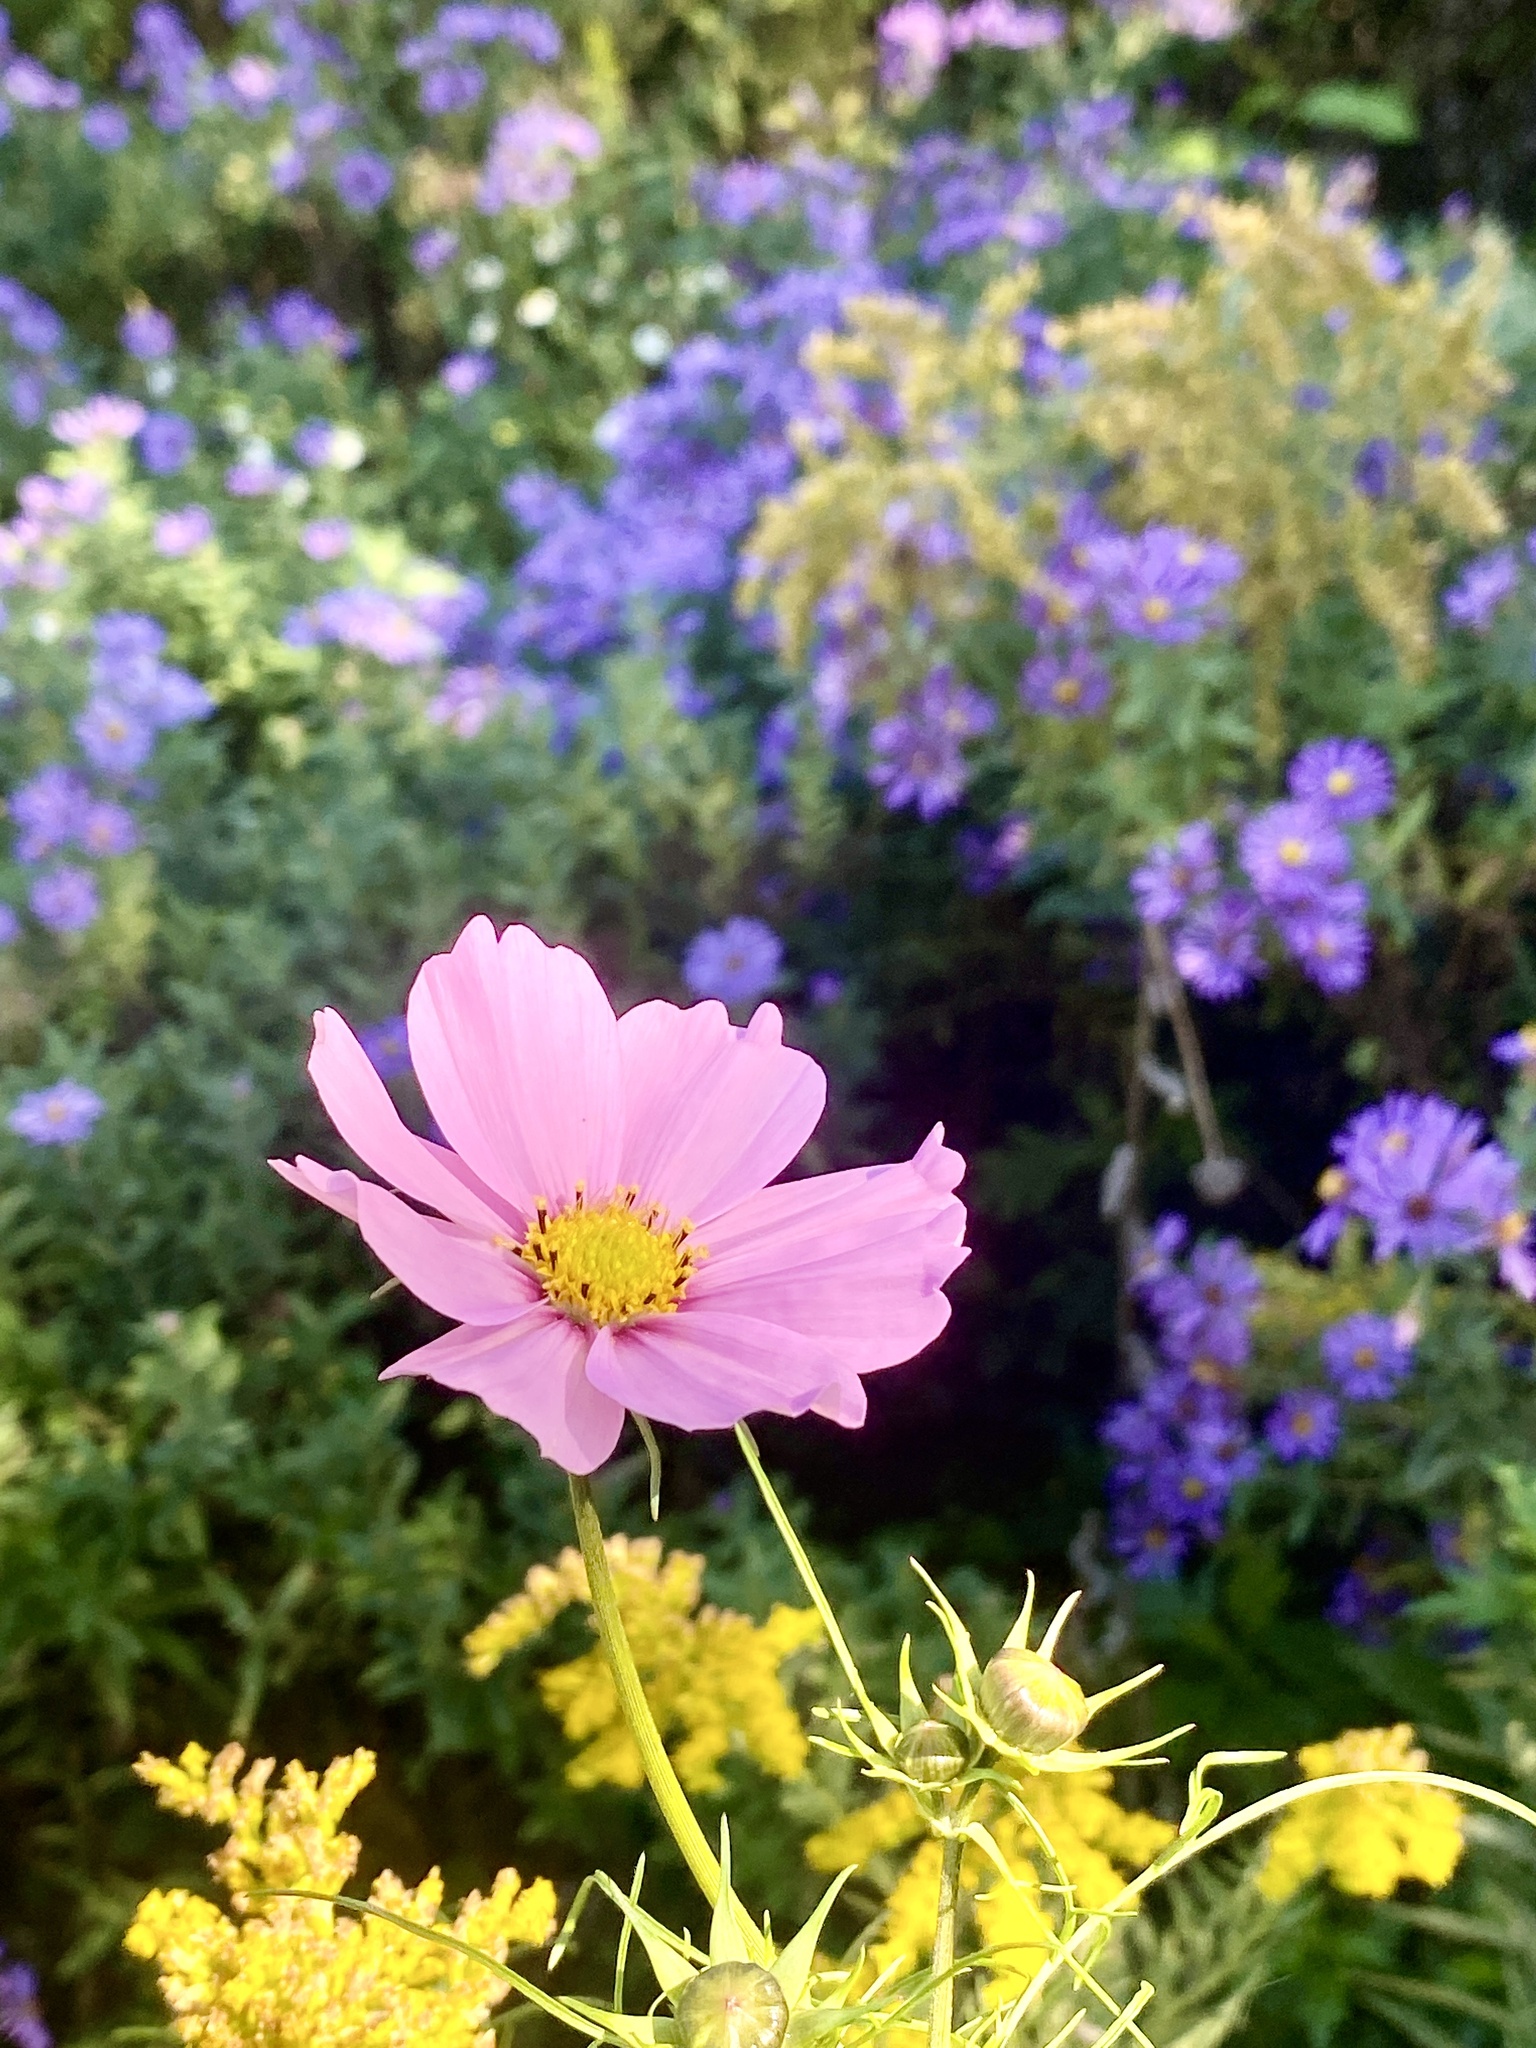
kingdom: Plantae
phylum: Tracheophyta
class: Magnoliopsida
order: Asterales
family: Asteraceae
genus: Cosmos
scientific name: Cosmos bipinnatus
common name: Garden cosmos
